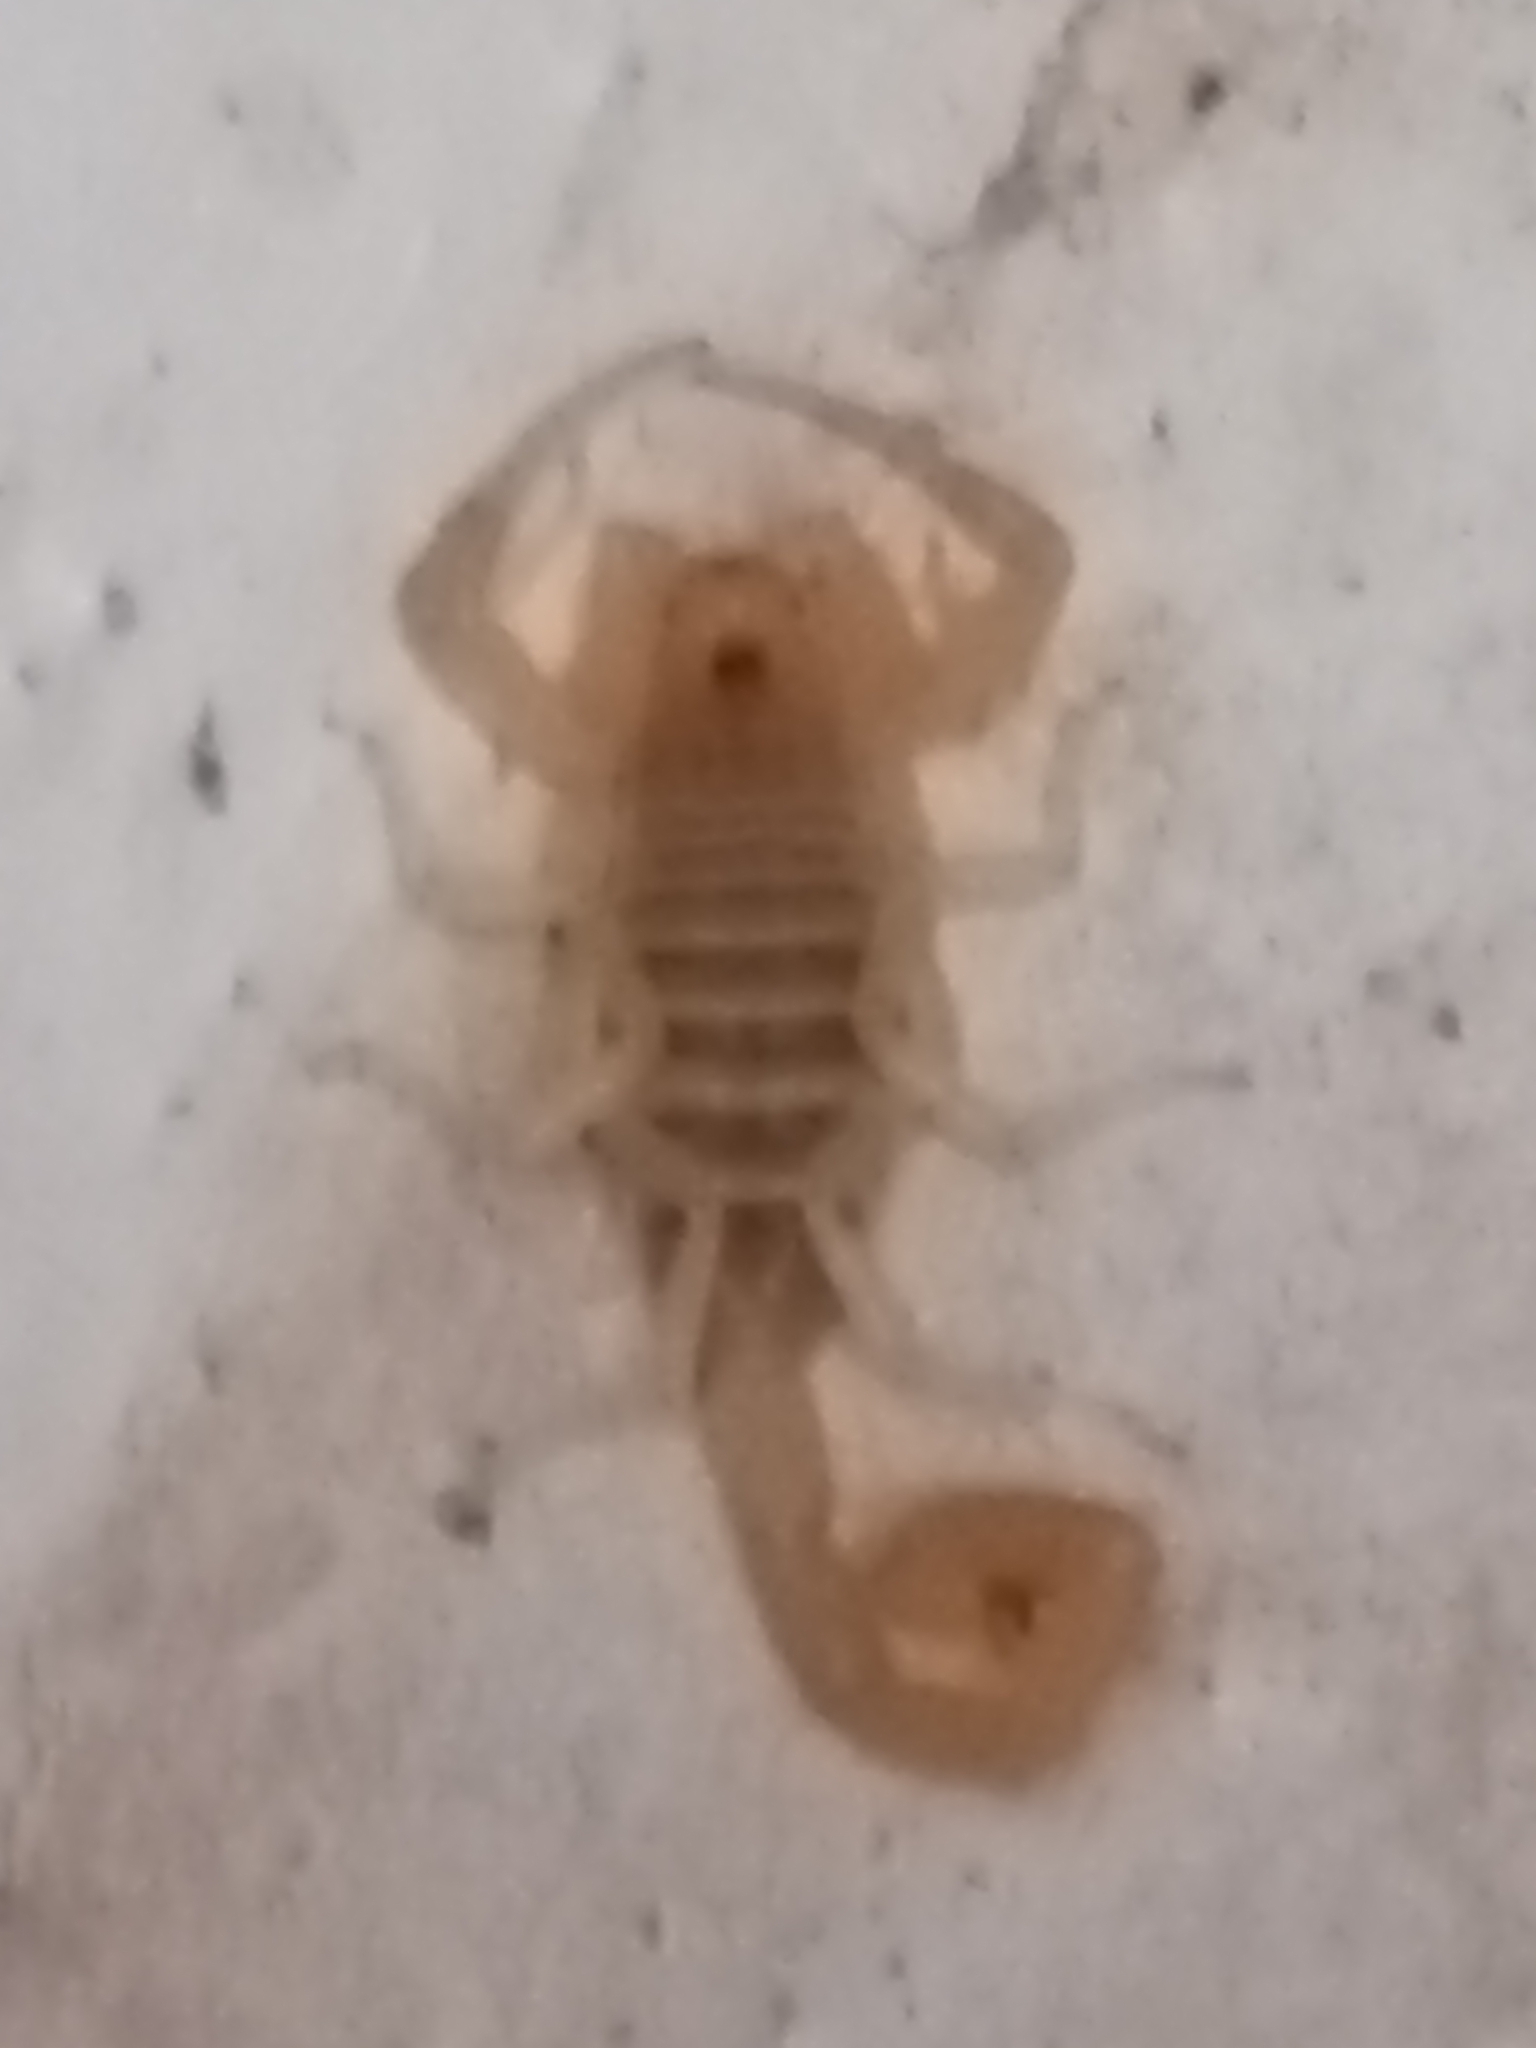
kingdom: Animalia
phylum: Arthropoda
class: Arachnida
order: Scorpiones
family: Buthidae
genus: Centruroides
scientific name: Centruroides sculpturatus
